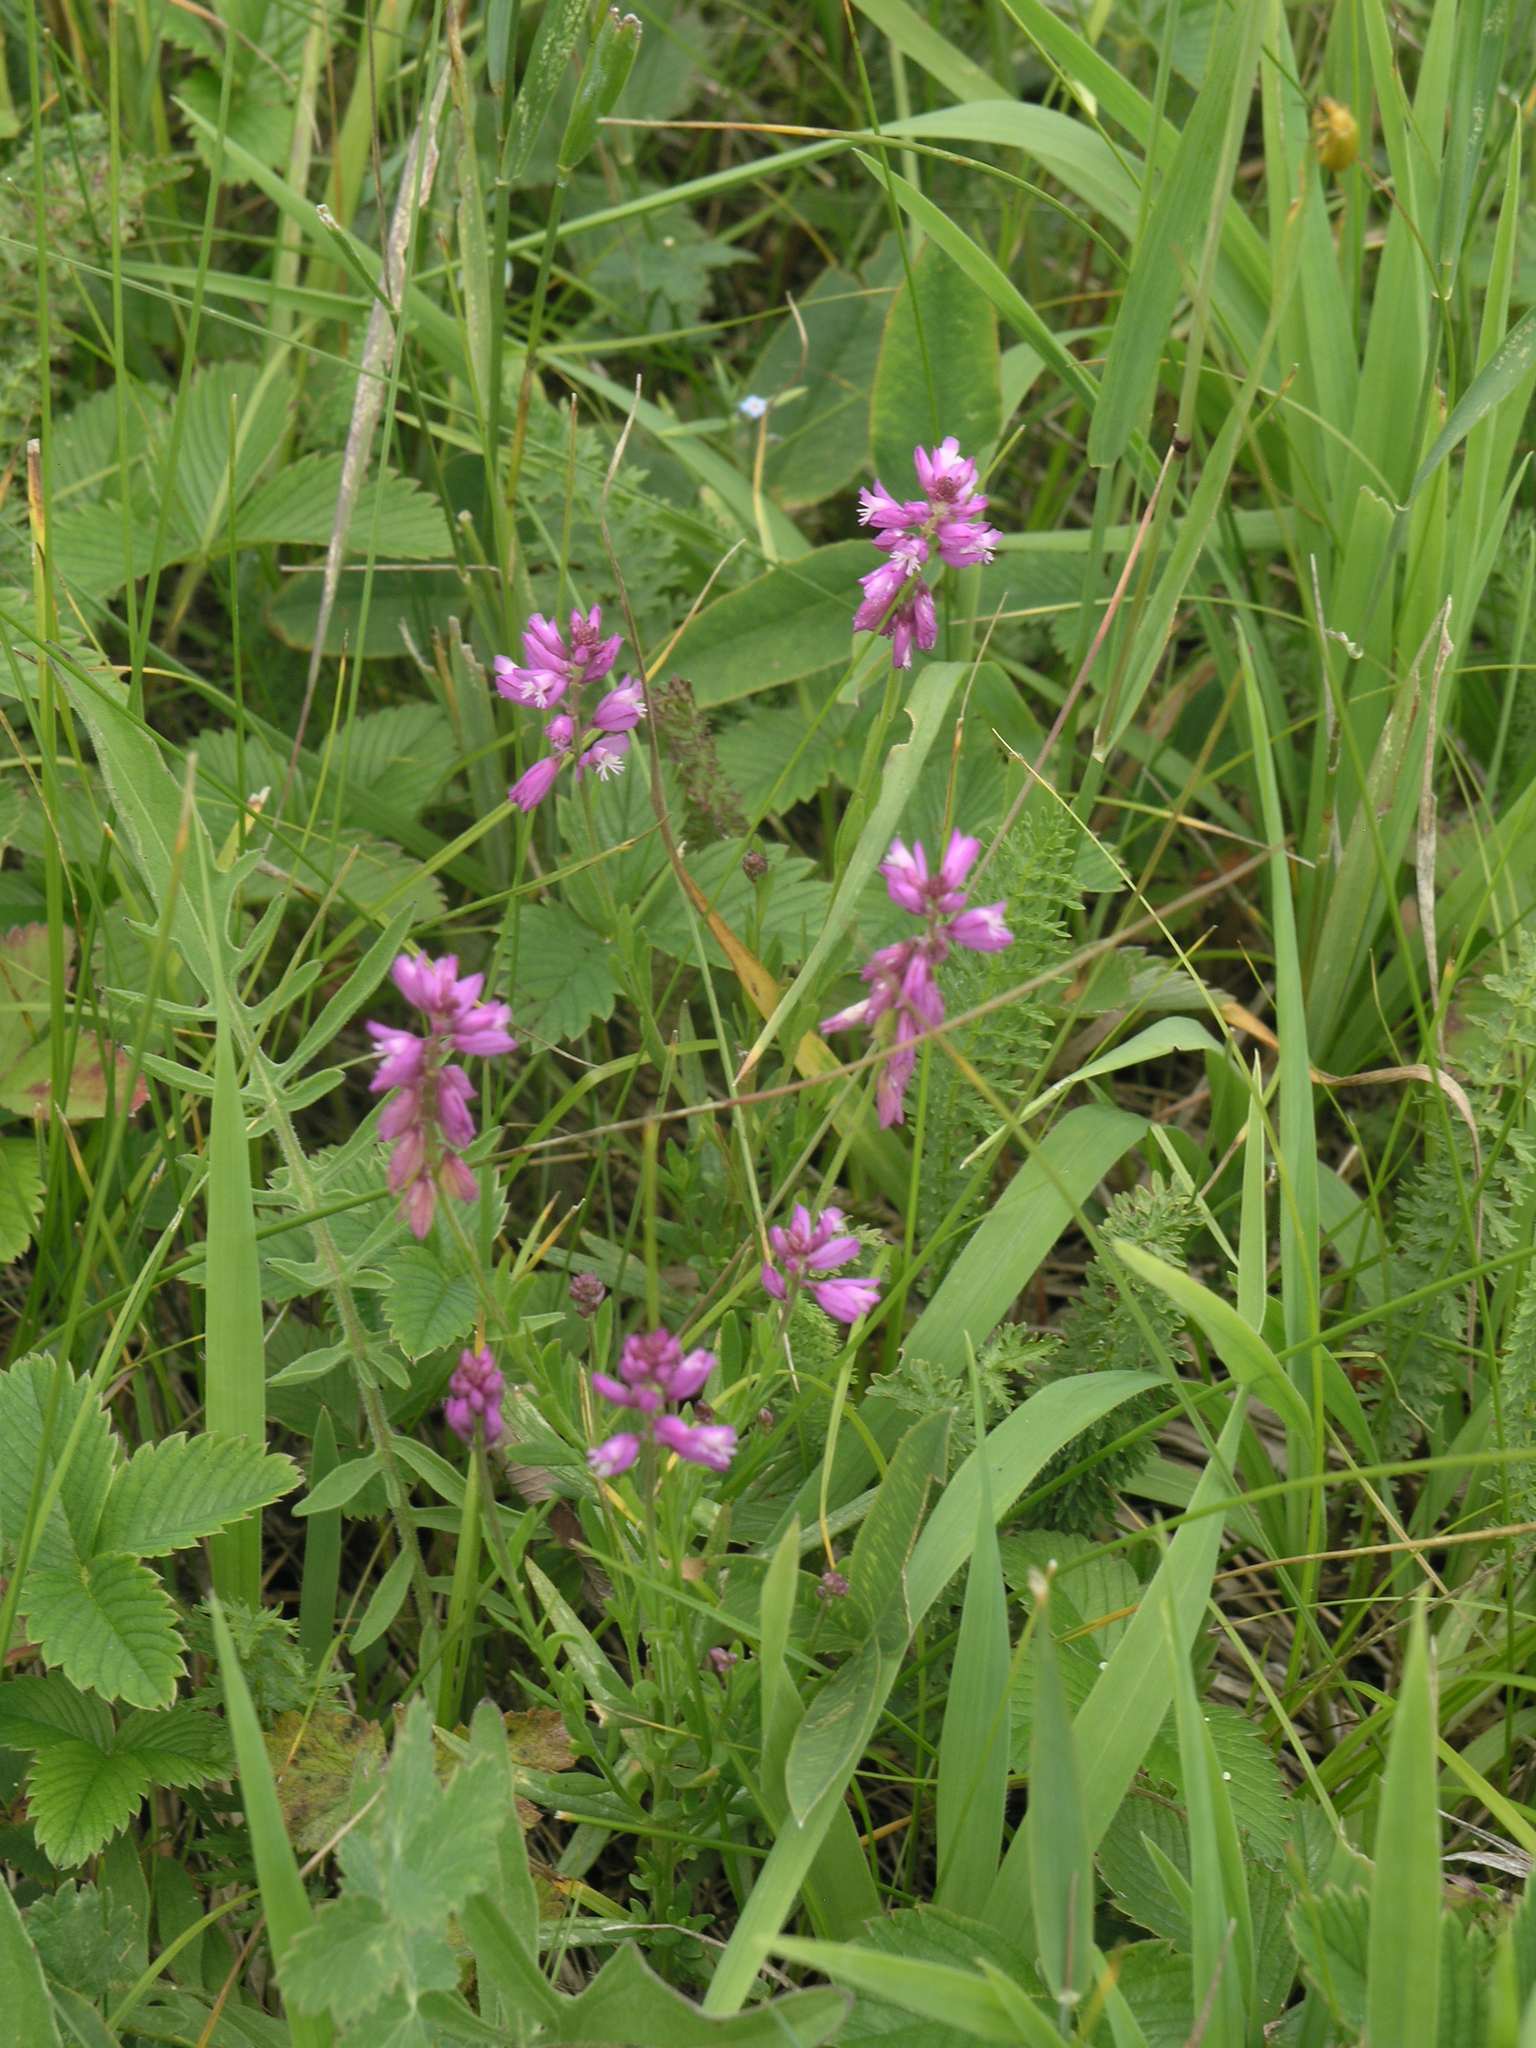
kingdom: Plantae
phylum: Tracheophyta
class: Magnoliopsida
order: Fabales
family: Polygalaceae
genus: Polygala
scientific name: Polygala comosa
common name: Tufted milkwort
